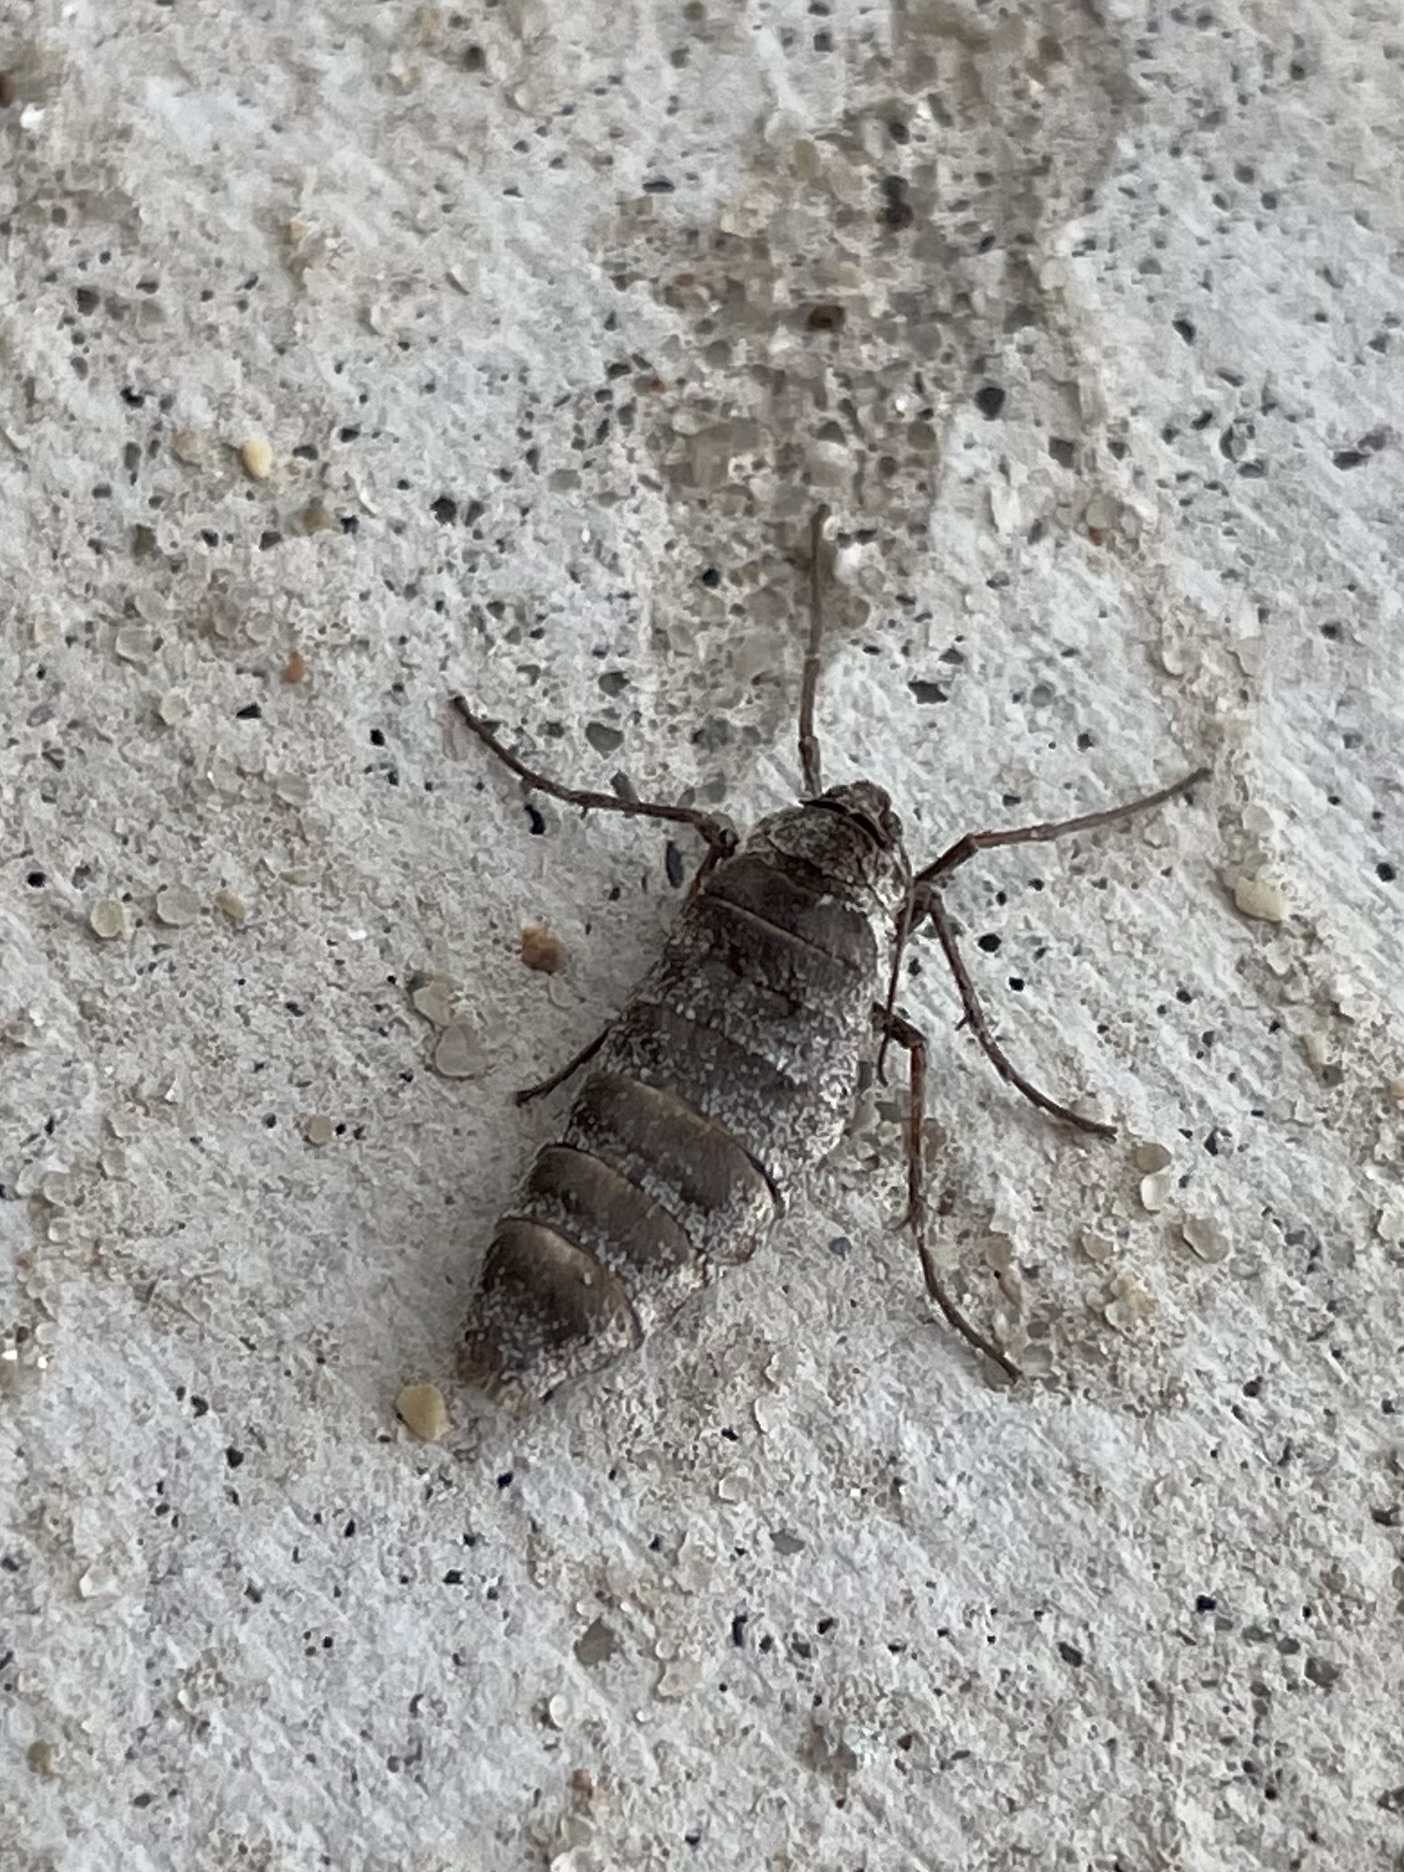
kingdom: Animalia
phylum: Arthropoda
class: Insecta
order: Lepidoptera
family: Geometridae
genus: Alsophila
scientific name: Alsophila pometaria
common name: Fall cankerworm
